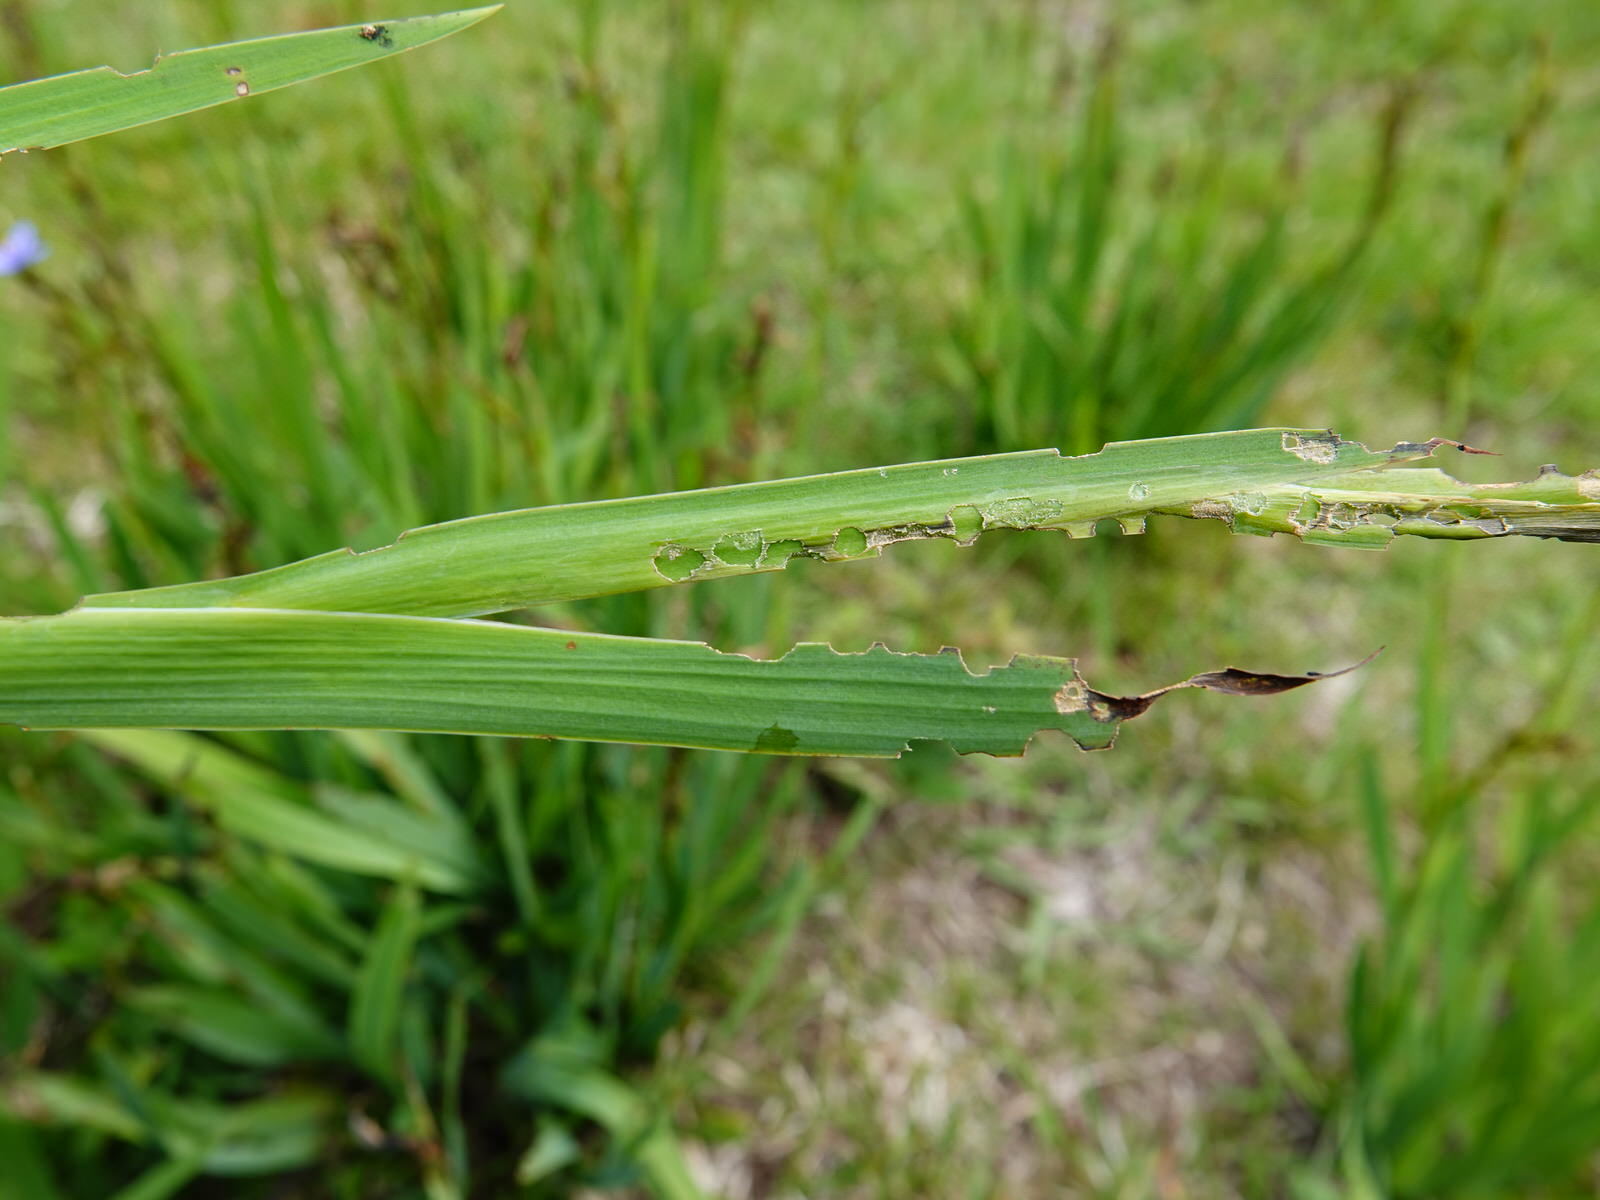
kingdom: Animalia
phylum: Arthropoda
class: Insecta
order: Coleoptera
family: Curculionidae
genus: Phlyctinus
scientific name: Phlyctinus callosus
